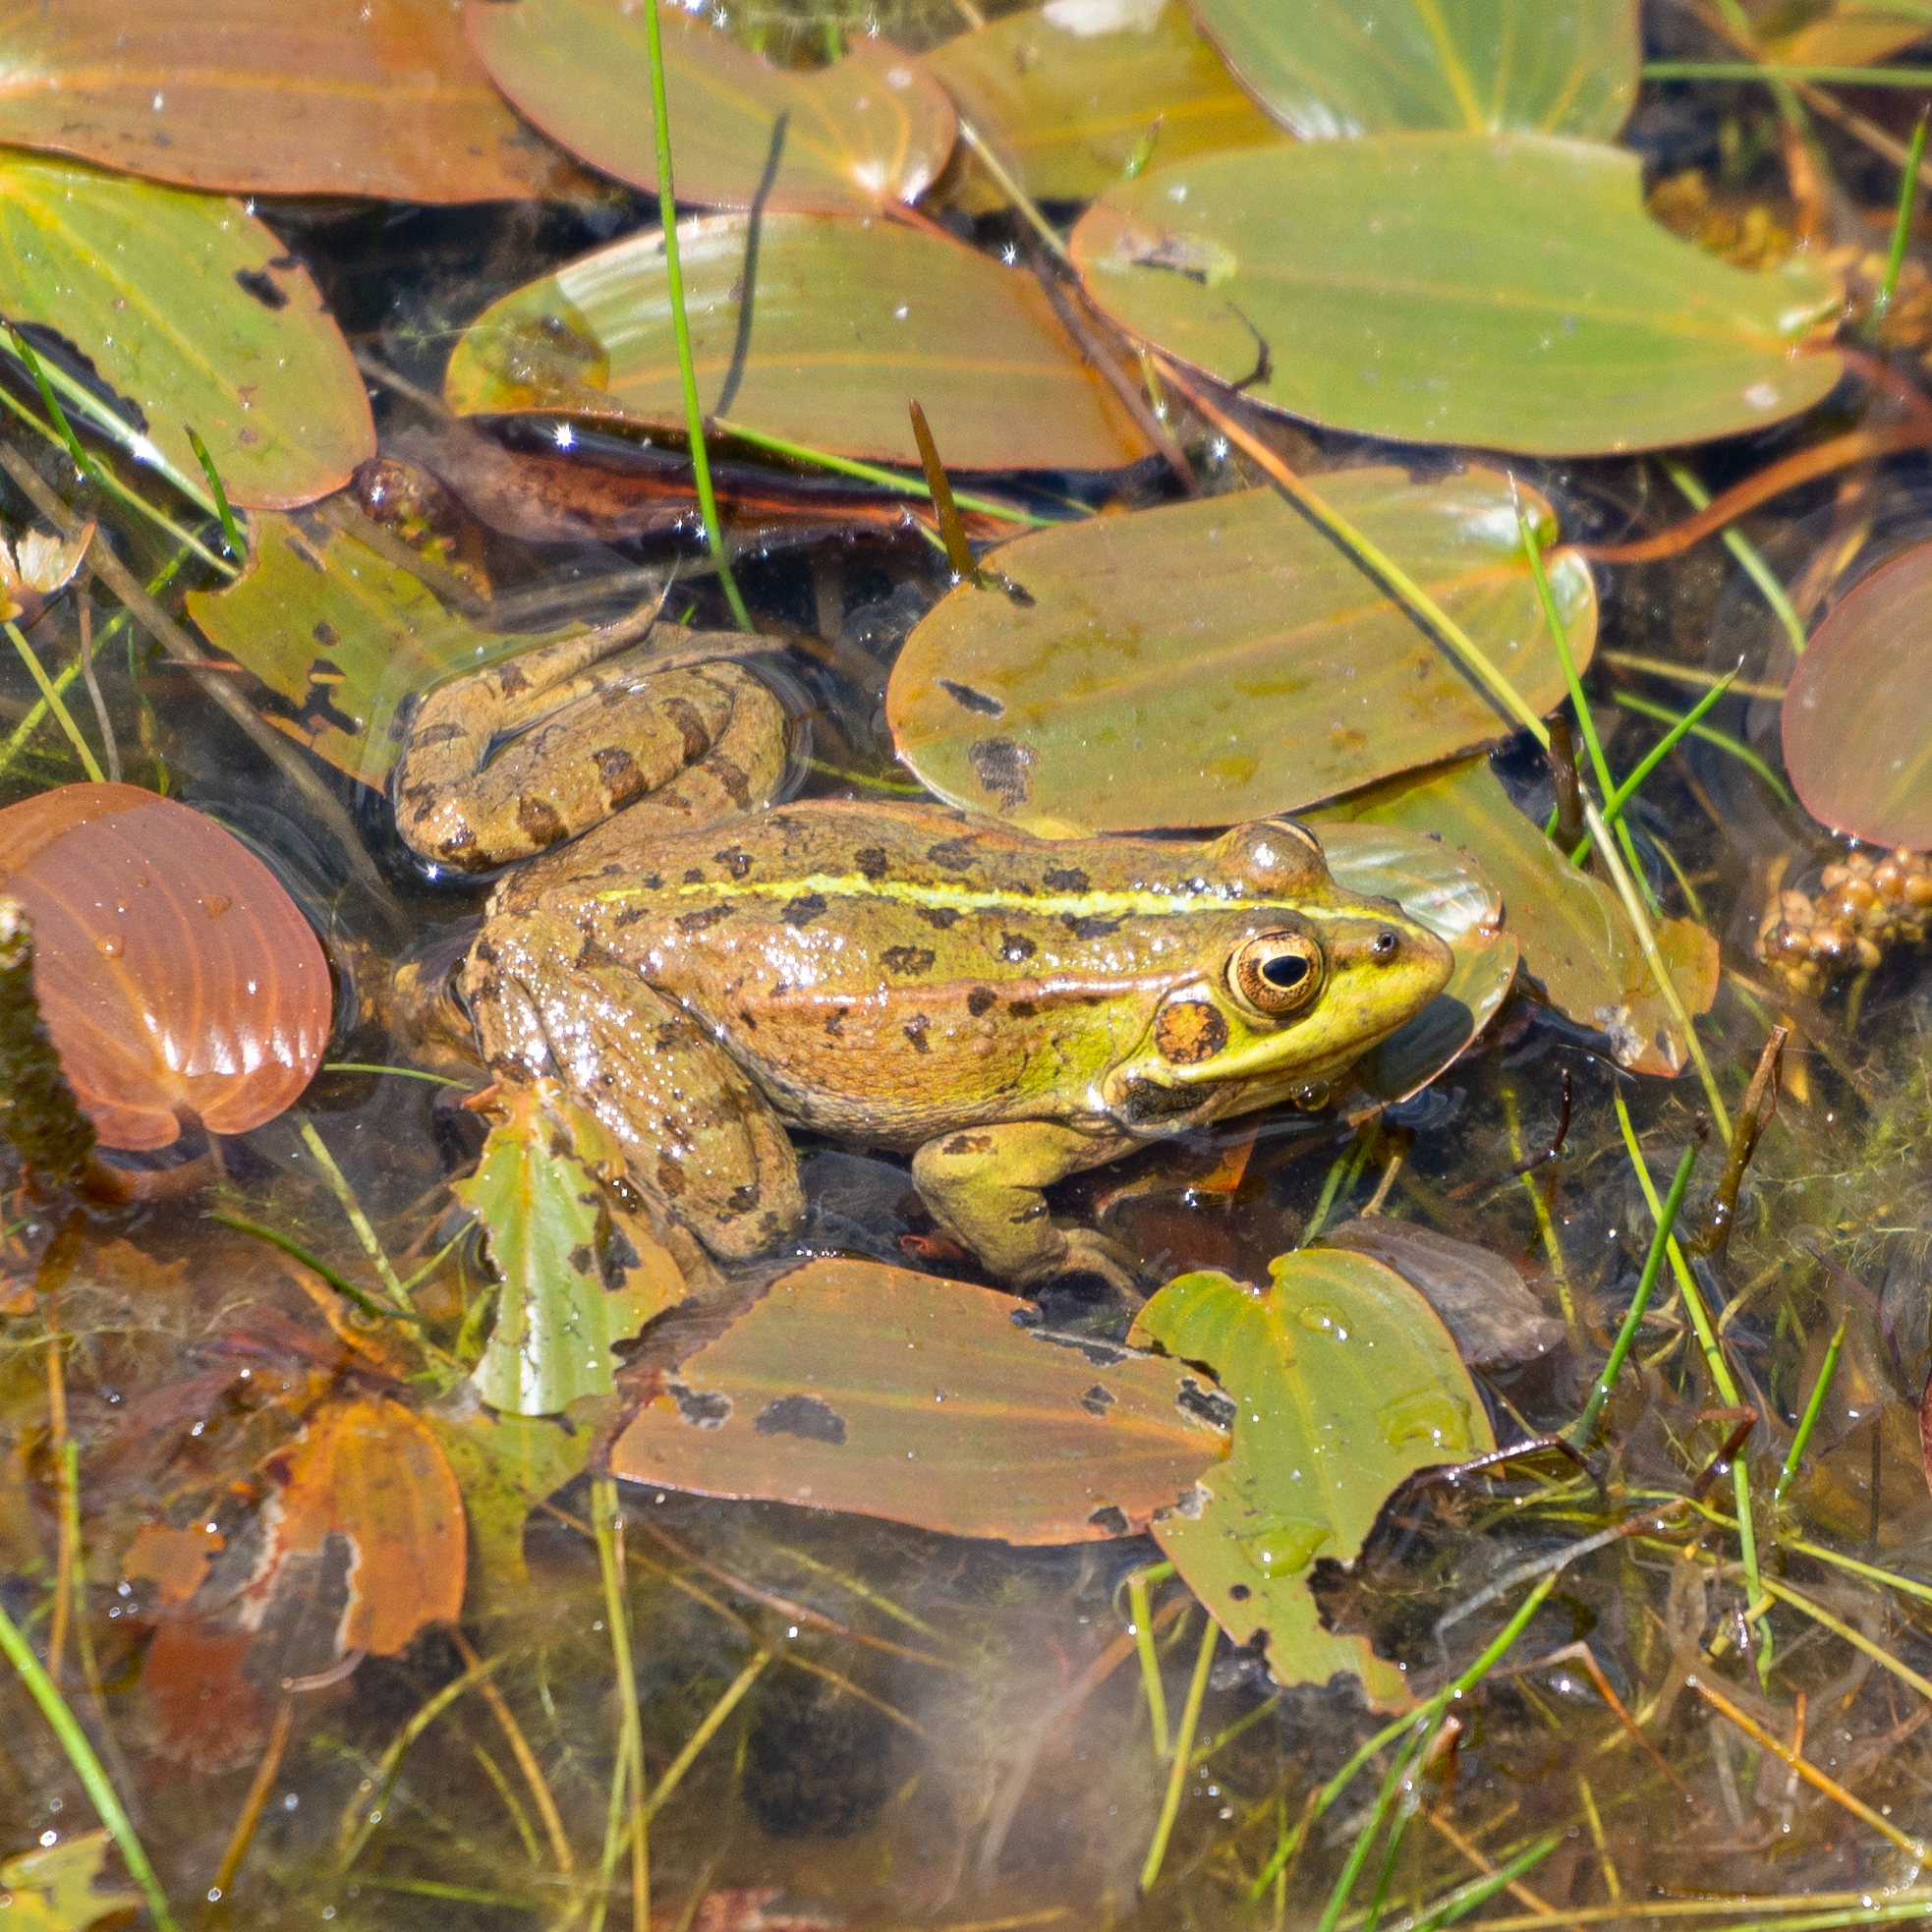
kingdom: Animalia
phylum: Chordata
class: Amphibia
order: Anura
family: Ranidae
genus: Pelophylax
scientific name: Pelophylax perezi
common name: Perez's frog
